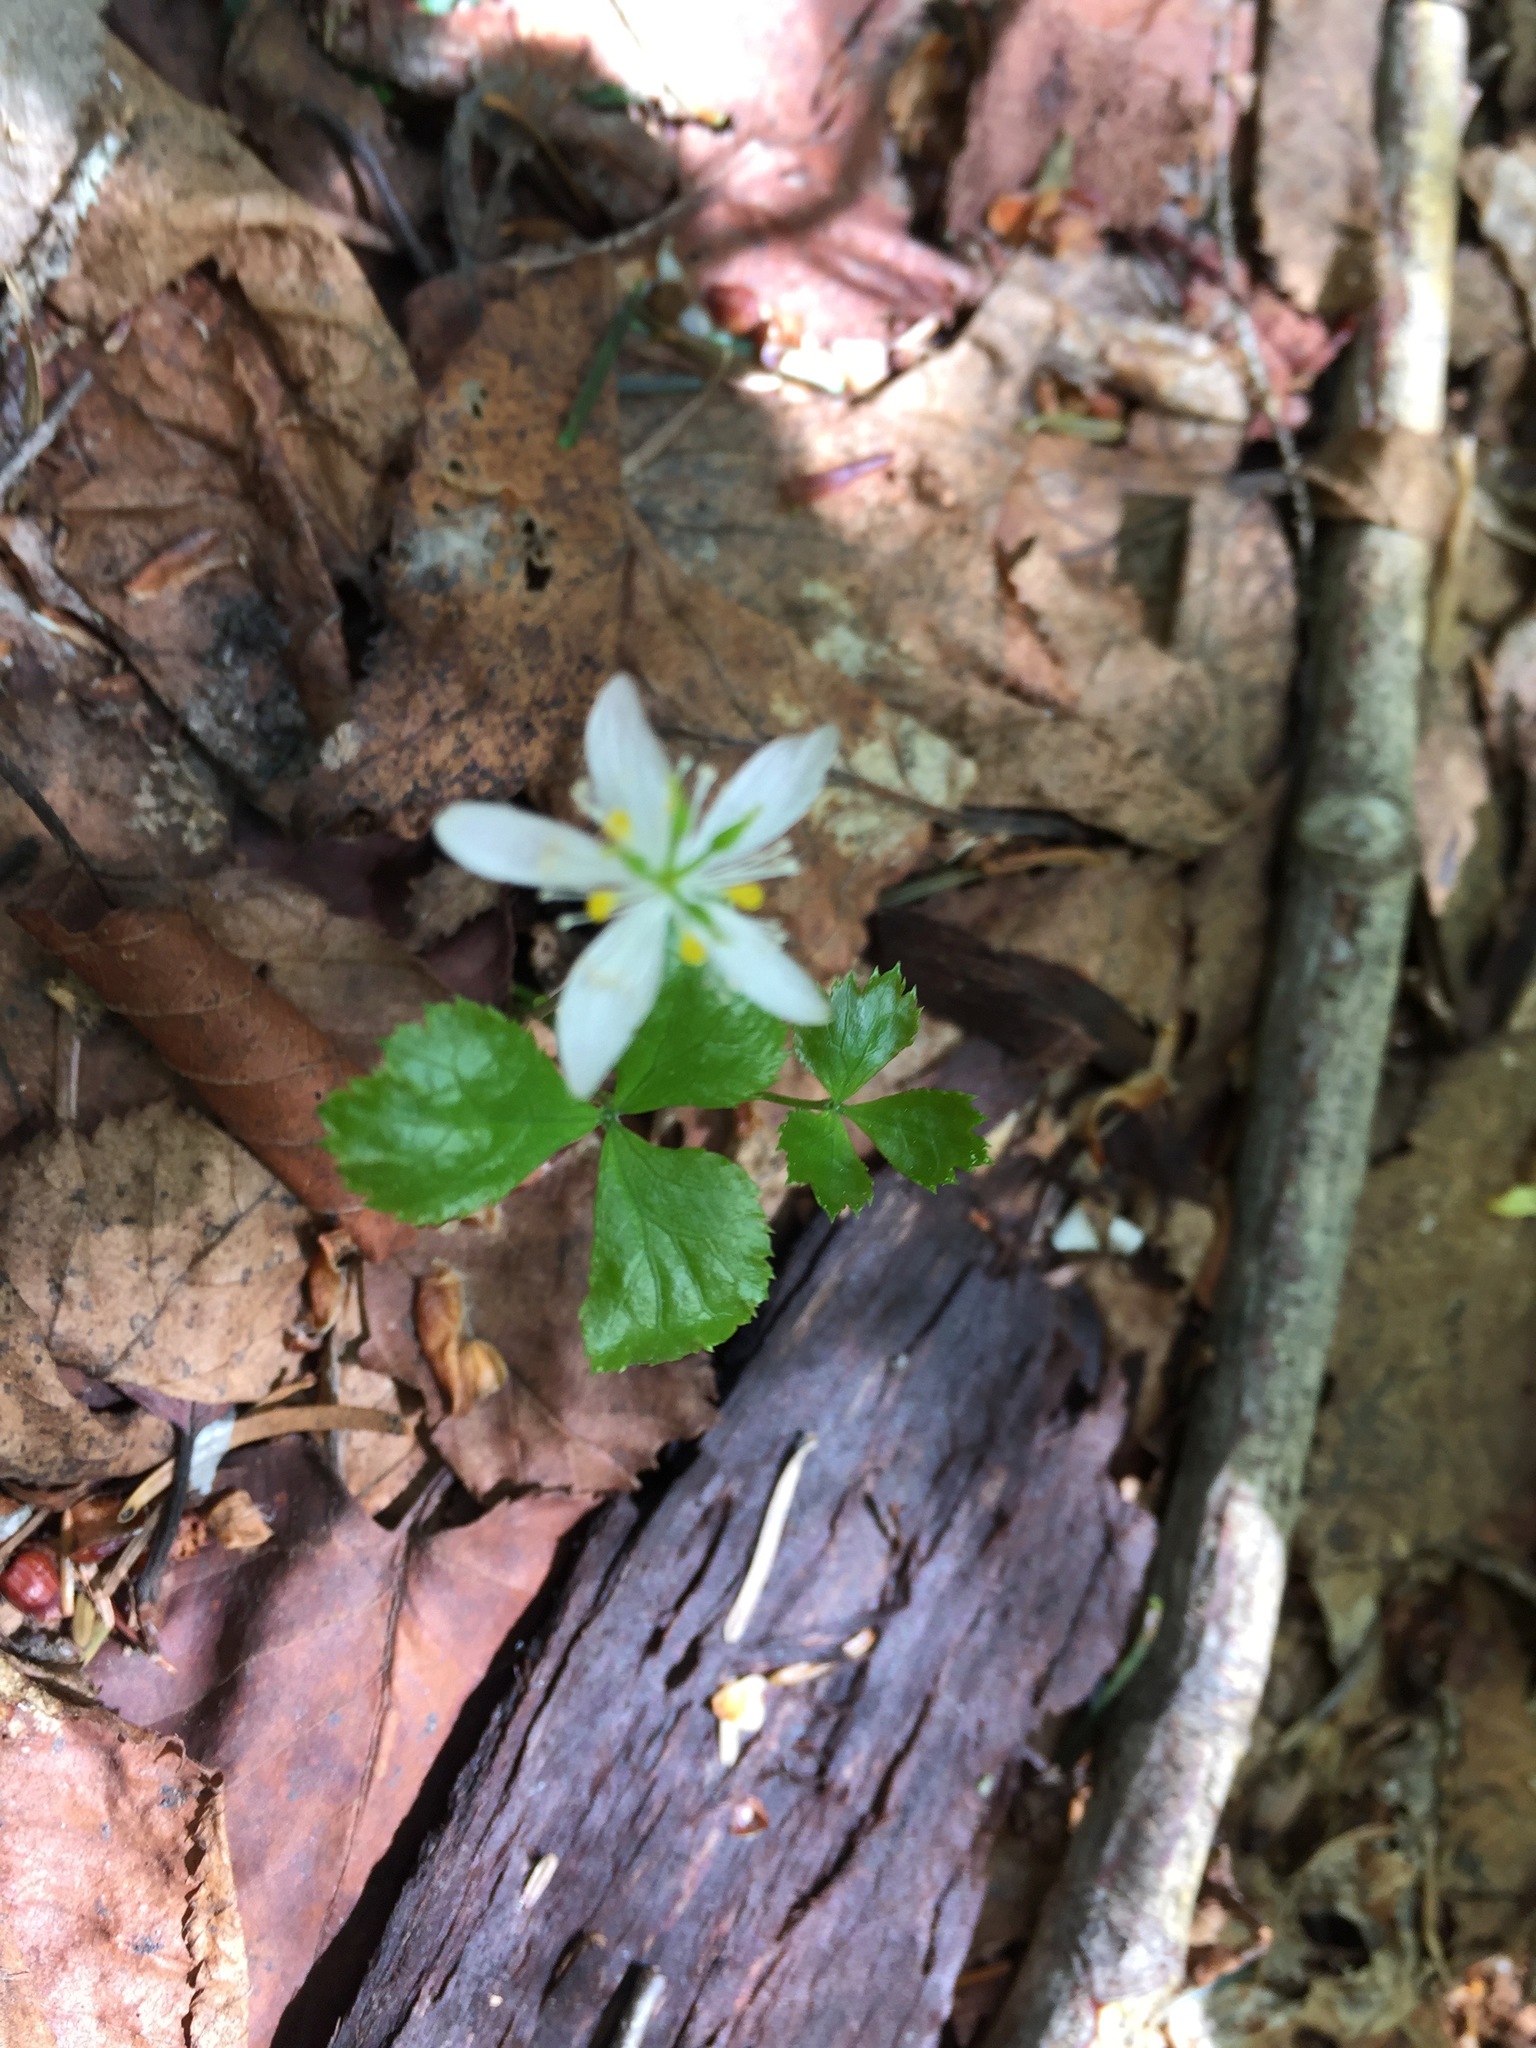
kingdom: Plantae
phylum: Tracheophyta
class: Magnoliopsida
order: Ranunculales
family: Ranunculaceae
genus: Coptis
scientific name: Coptis trifolia
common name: Canker-root
